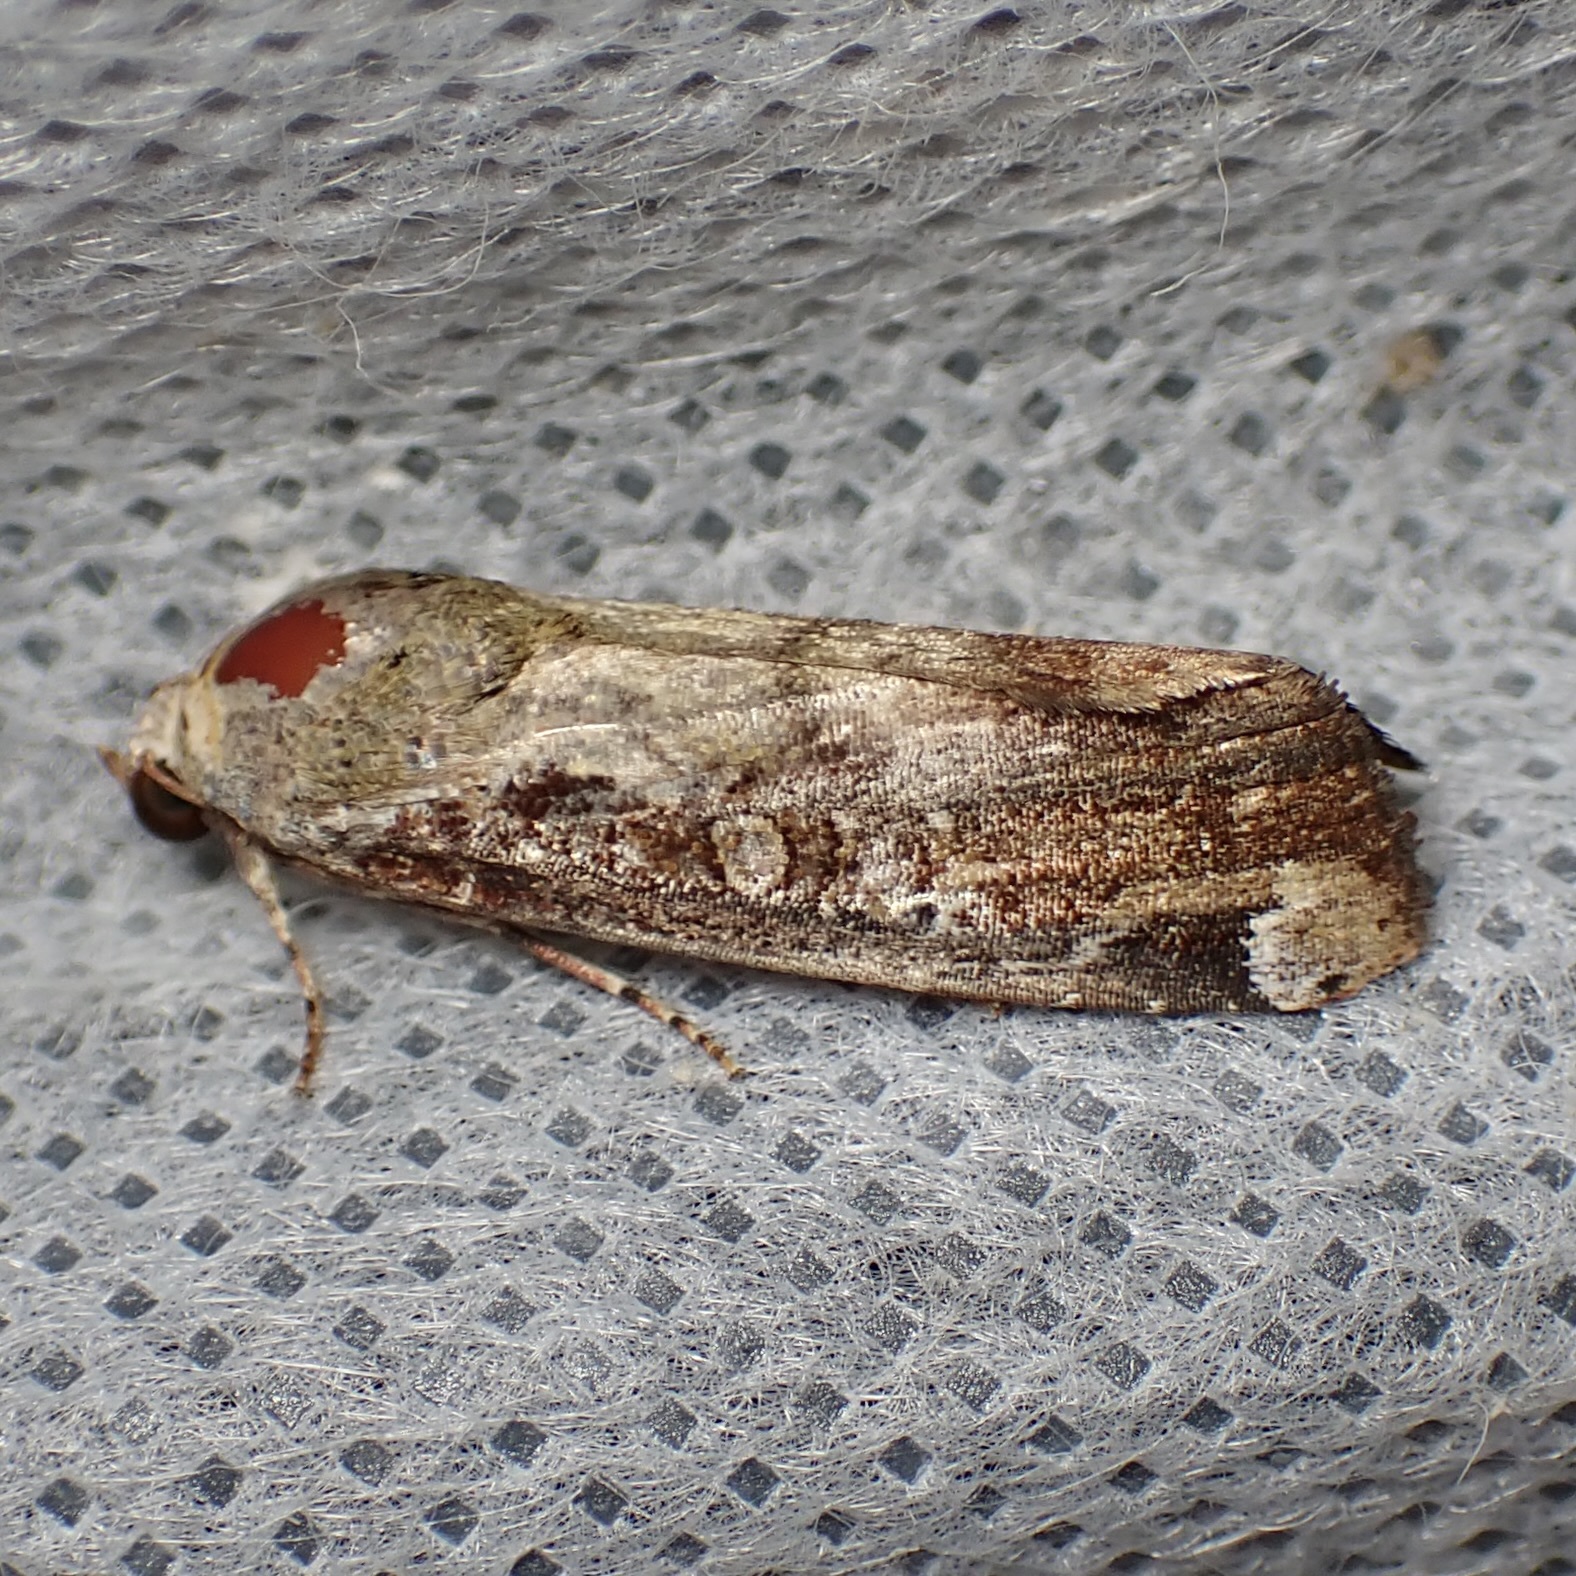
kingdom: Animalia
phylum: Arthropoda
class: Insecta
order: Lepidoptera
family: Noctuidae
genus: Magusa
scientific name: Magusa divaricata
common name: Orb narrow-winged moth
